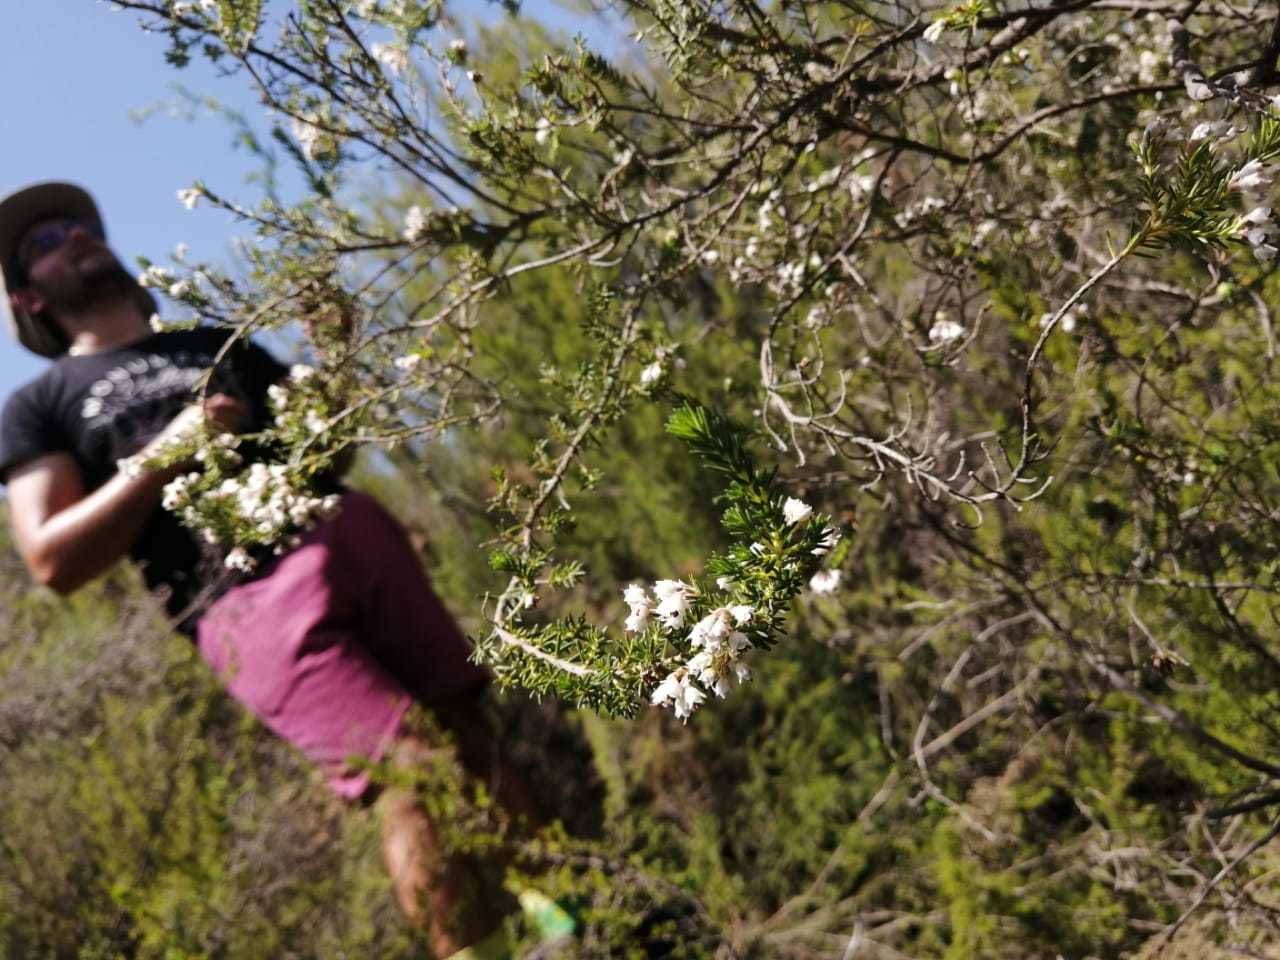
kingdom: Plantae
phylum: Tracheophyta
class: Magnoliopsida
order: Ericales
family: Ericaceae
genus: Erica
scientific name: Erica brownleeae
